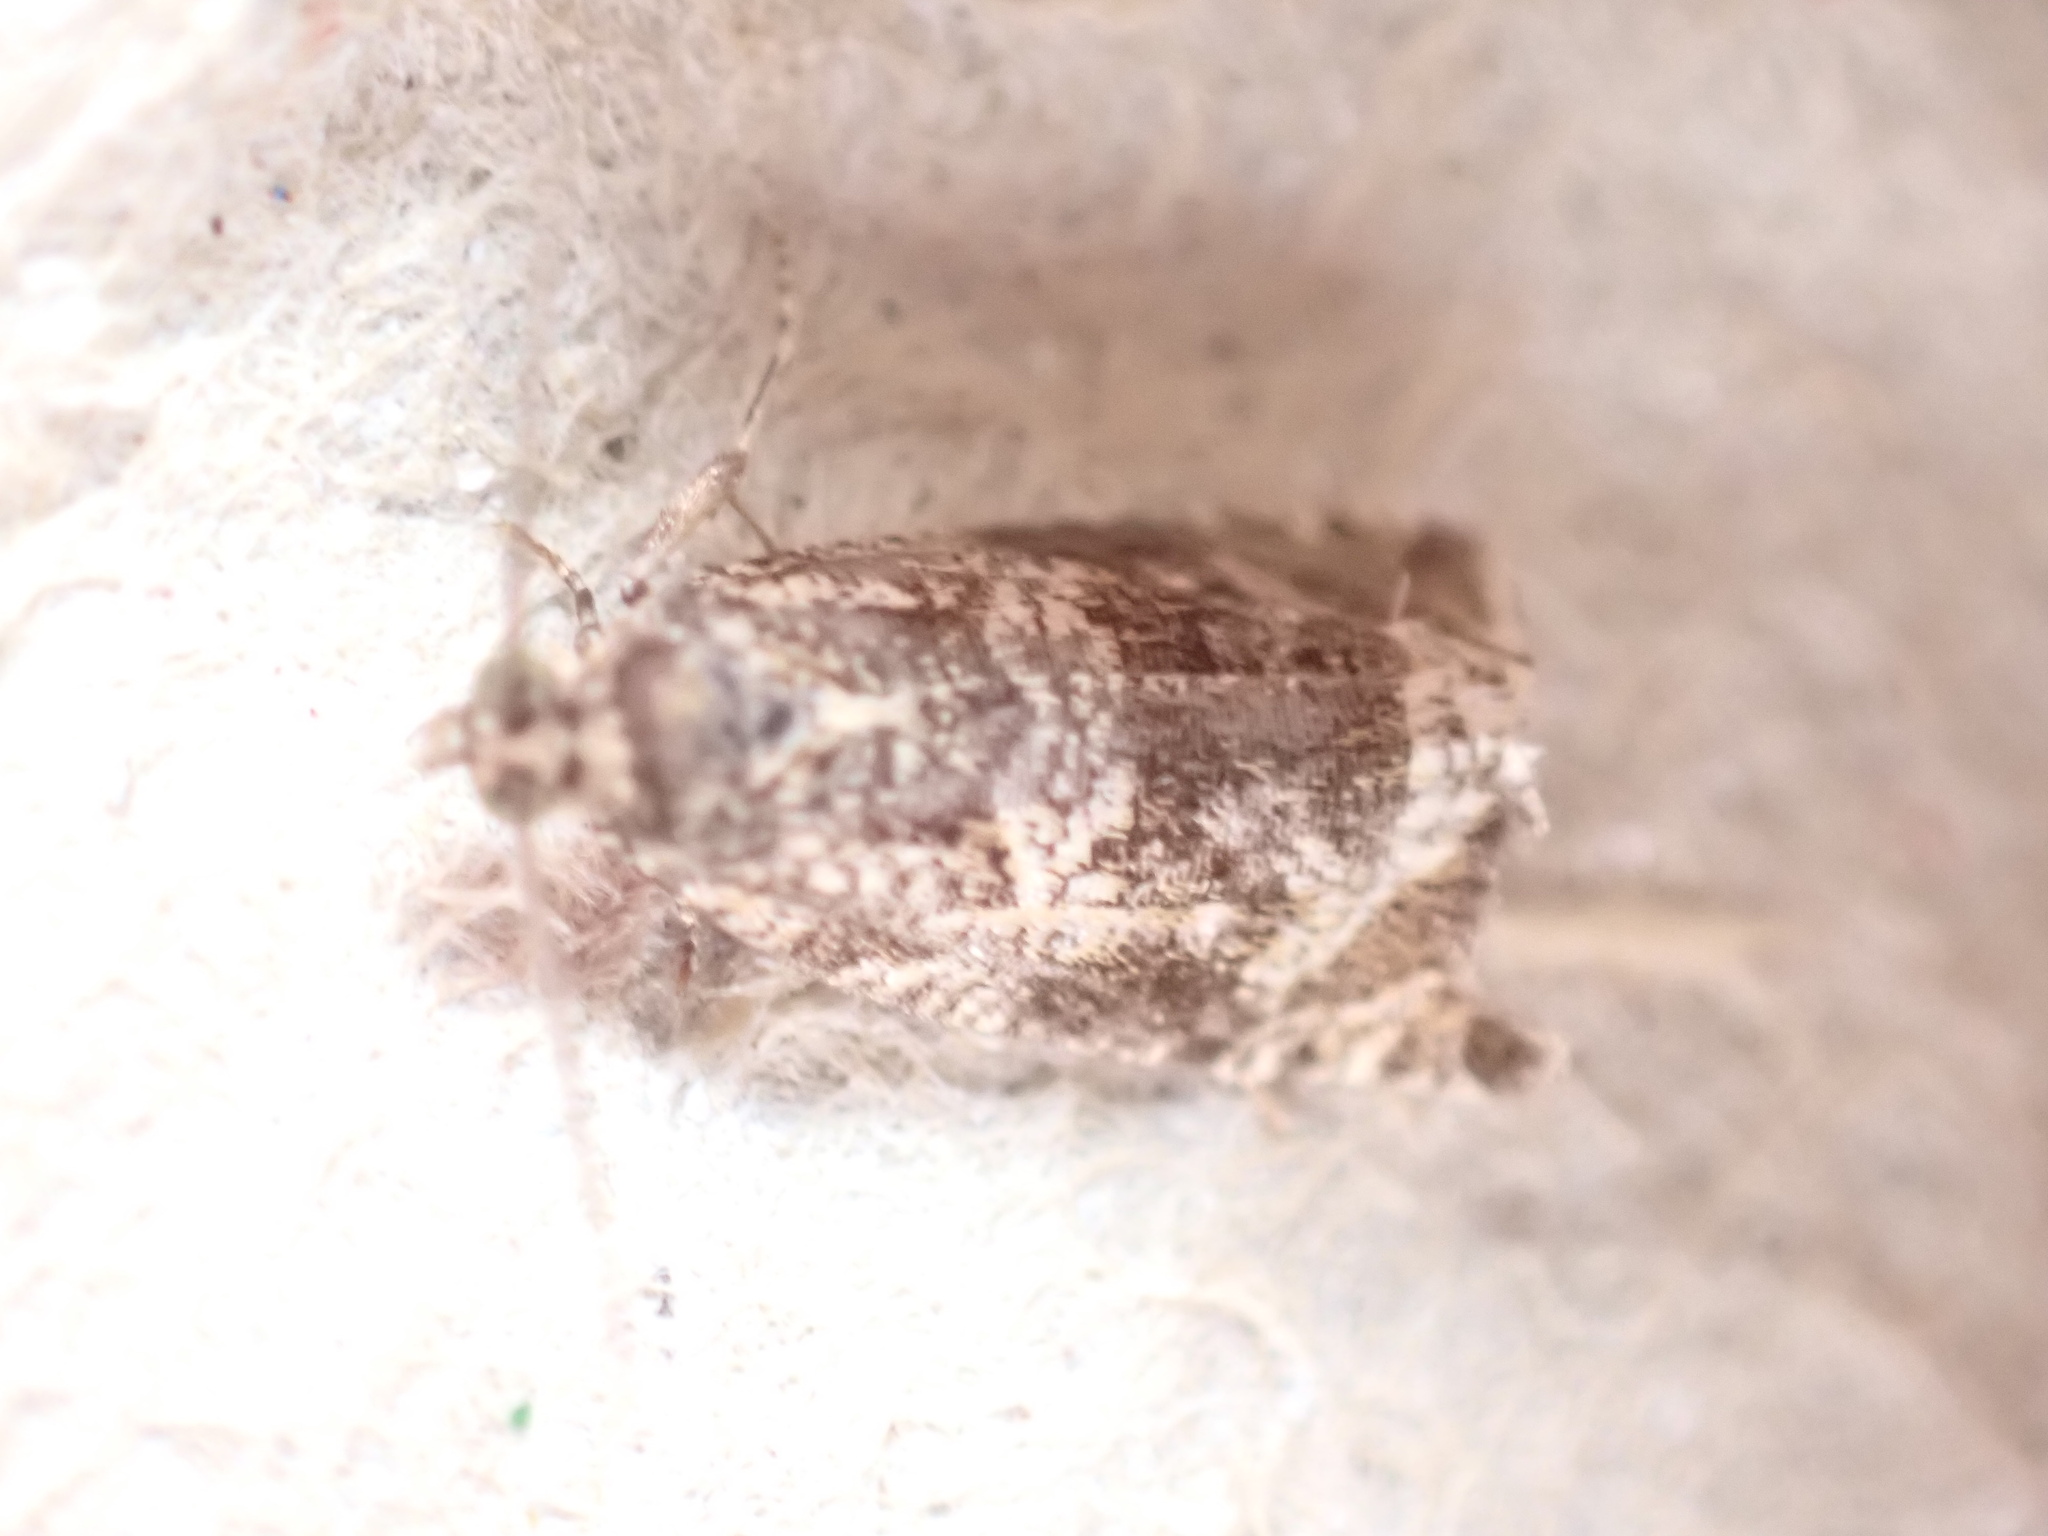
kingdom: Animalia
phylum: Arthropoda
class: Insecta
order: Lepidoptera
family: Tortricidae
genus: Syricoris
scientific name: Syricoris lacunana
